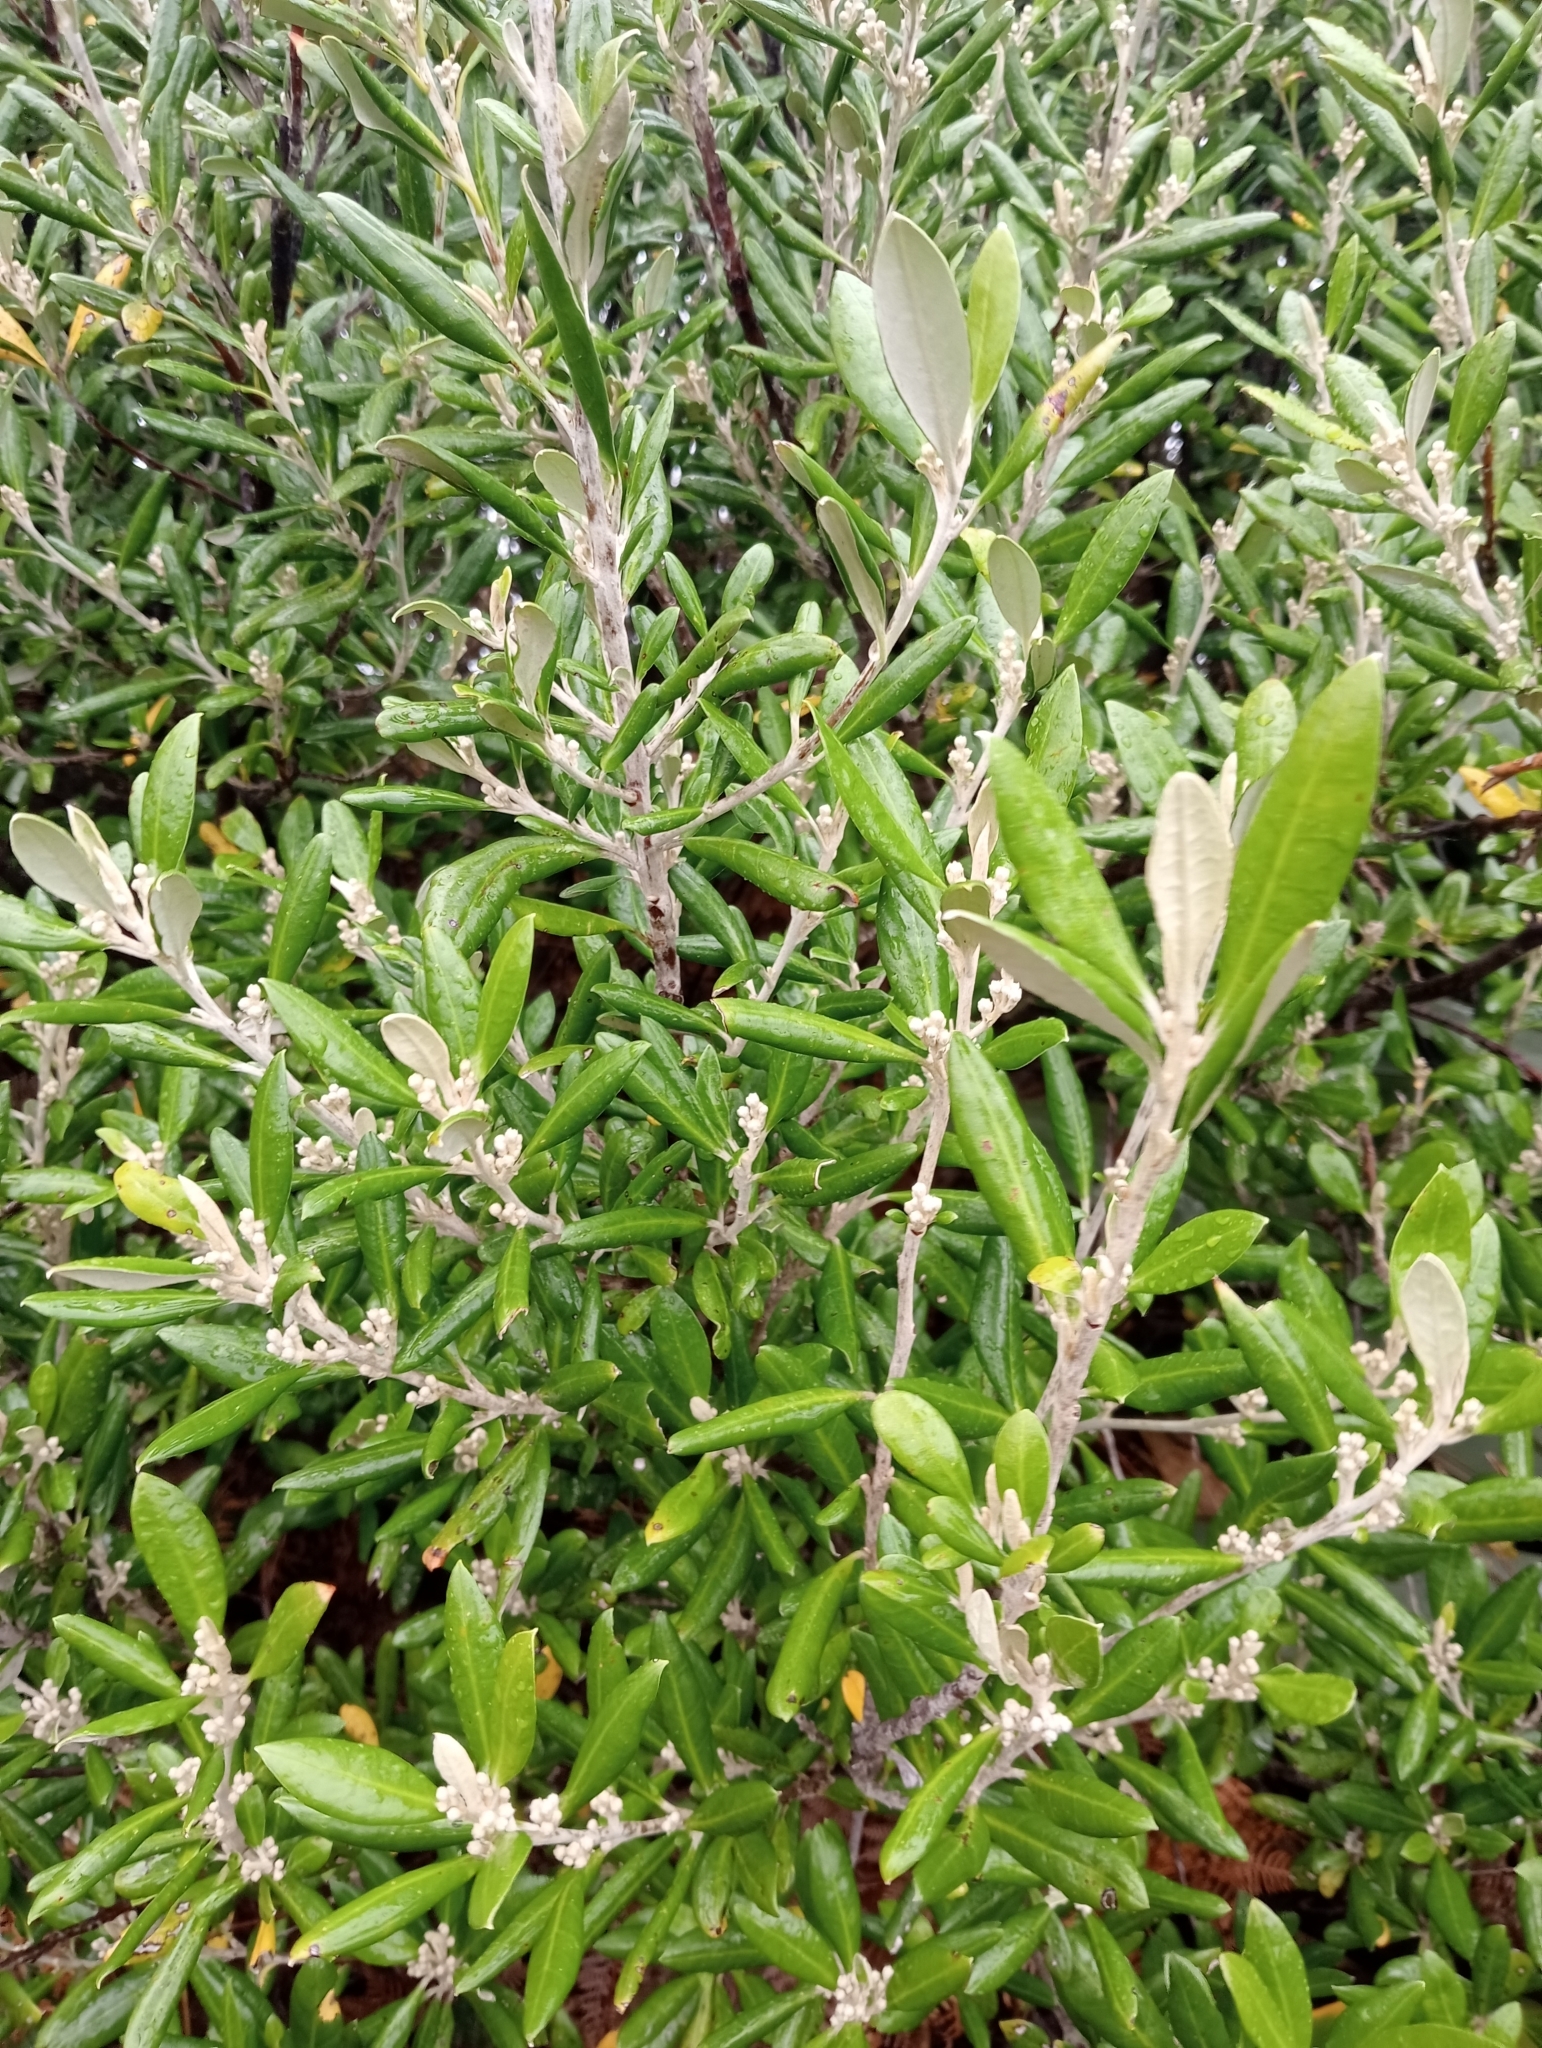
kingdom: Plantae
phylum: Tracheophyta
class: Magnoliopsida
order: Asterales
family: Argophyllaceae
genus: Corokia
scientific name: Corokia macrocarpa
